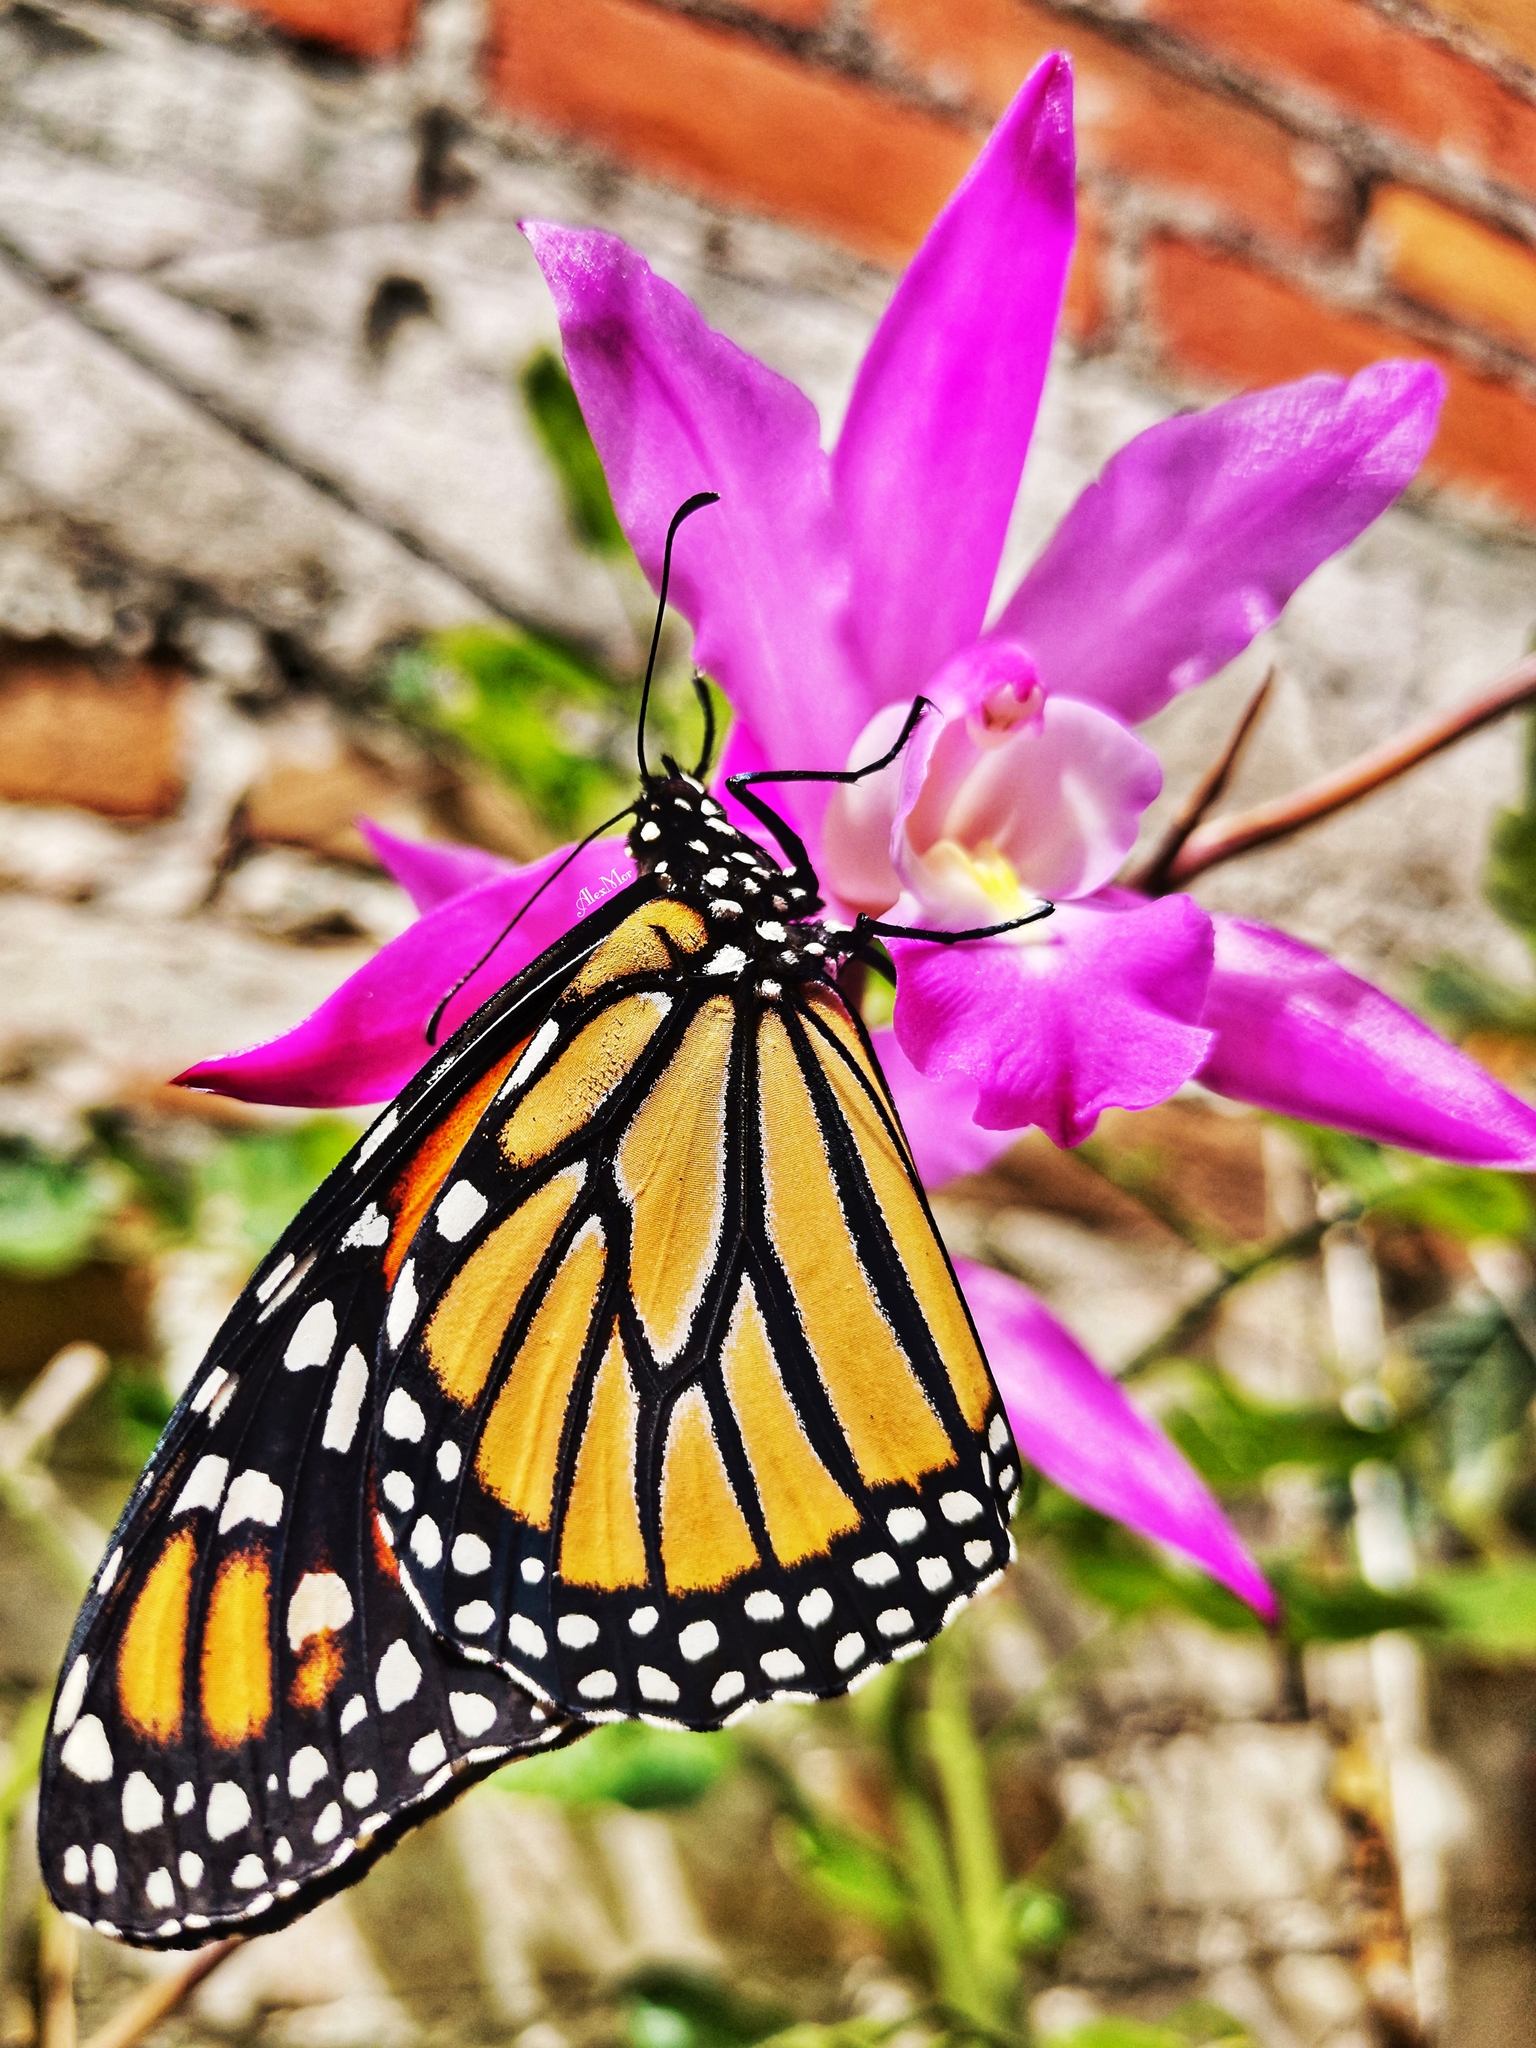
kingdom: Animalia
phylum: Arthropoda
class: Insecta
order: Lepidoptera
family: Nymphalidae
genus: Danaus
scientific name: Danaus plexippus
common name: Monarch
